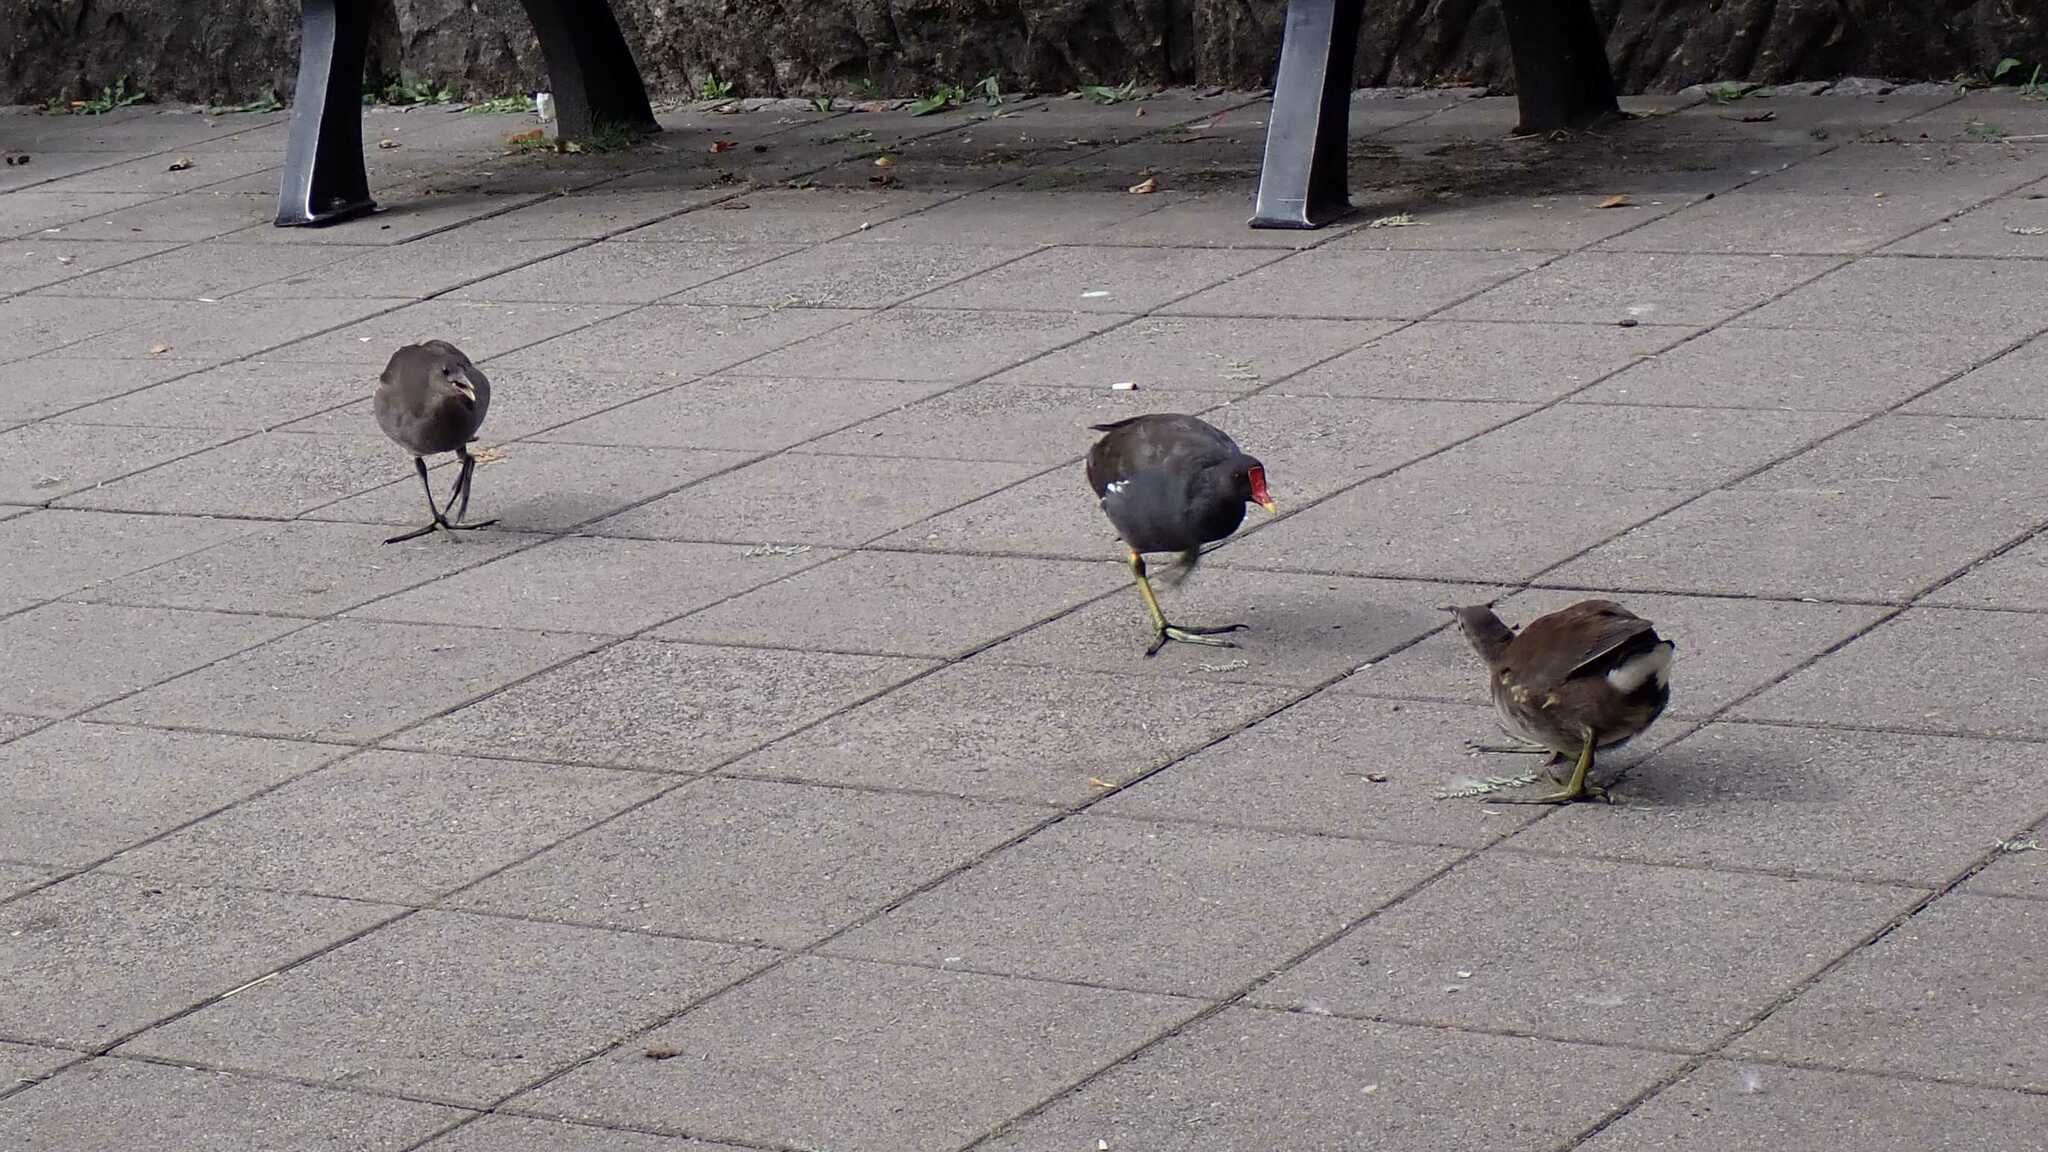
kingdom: Animalia
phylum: Chordata
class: Aves
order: Gruiformes
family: Rallidae
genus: Gallinula
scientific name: Gallinula chloropus
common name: Common moorhen
